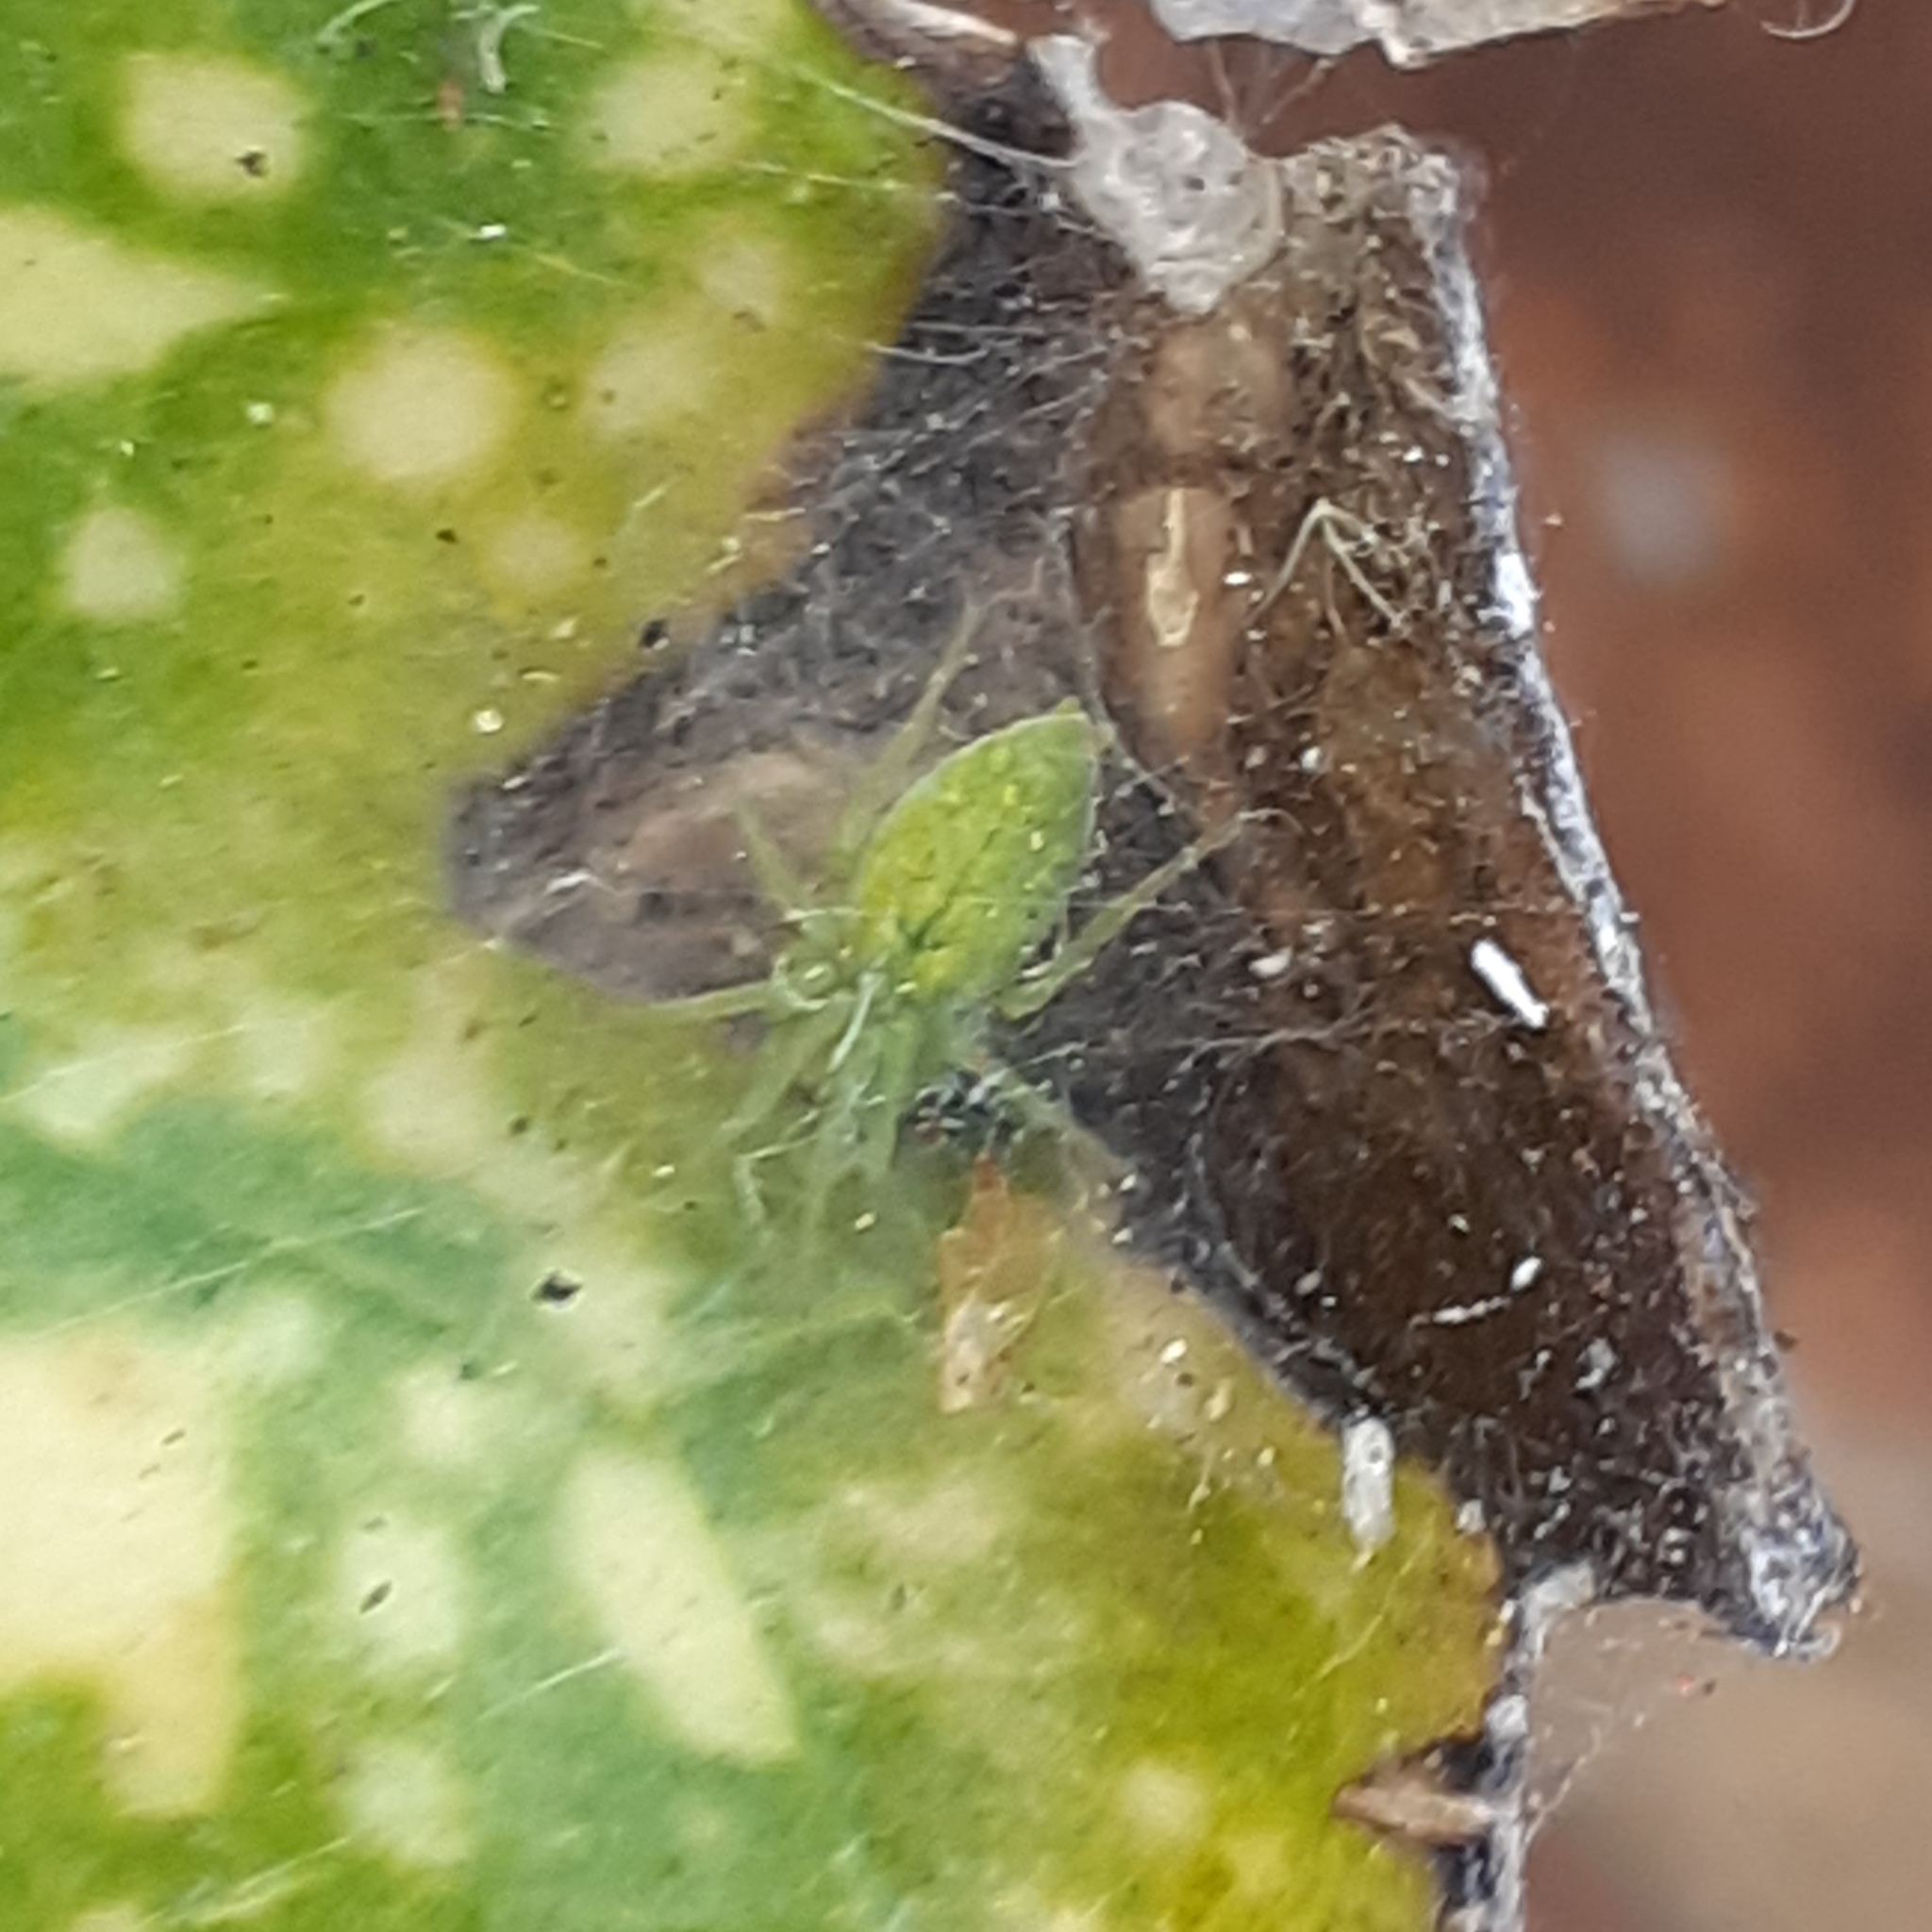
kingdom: Animalia
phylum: Arthropoda
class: Arachnida
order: Araneae
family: Dictynidae
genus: Nigma
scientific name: Nigma walckenaeri
